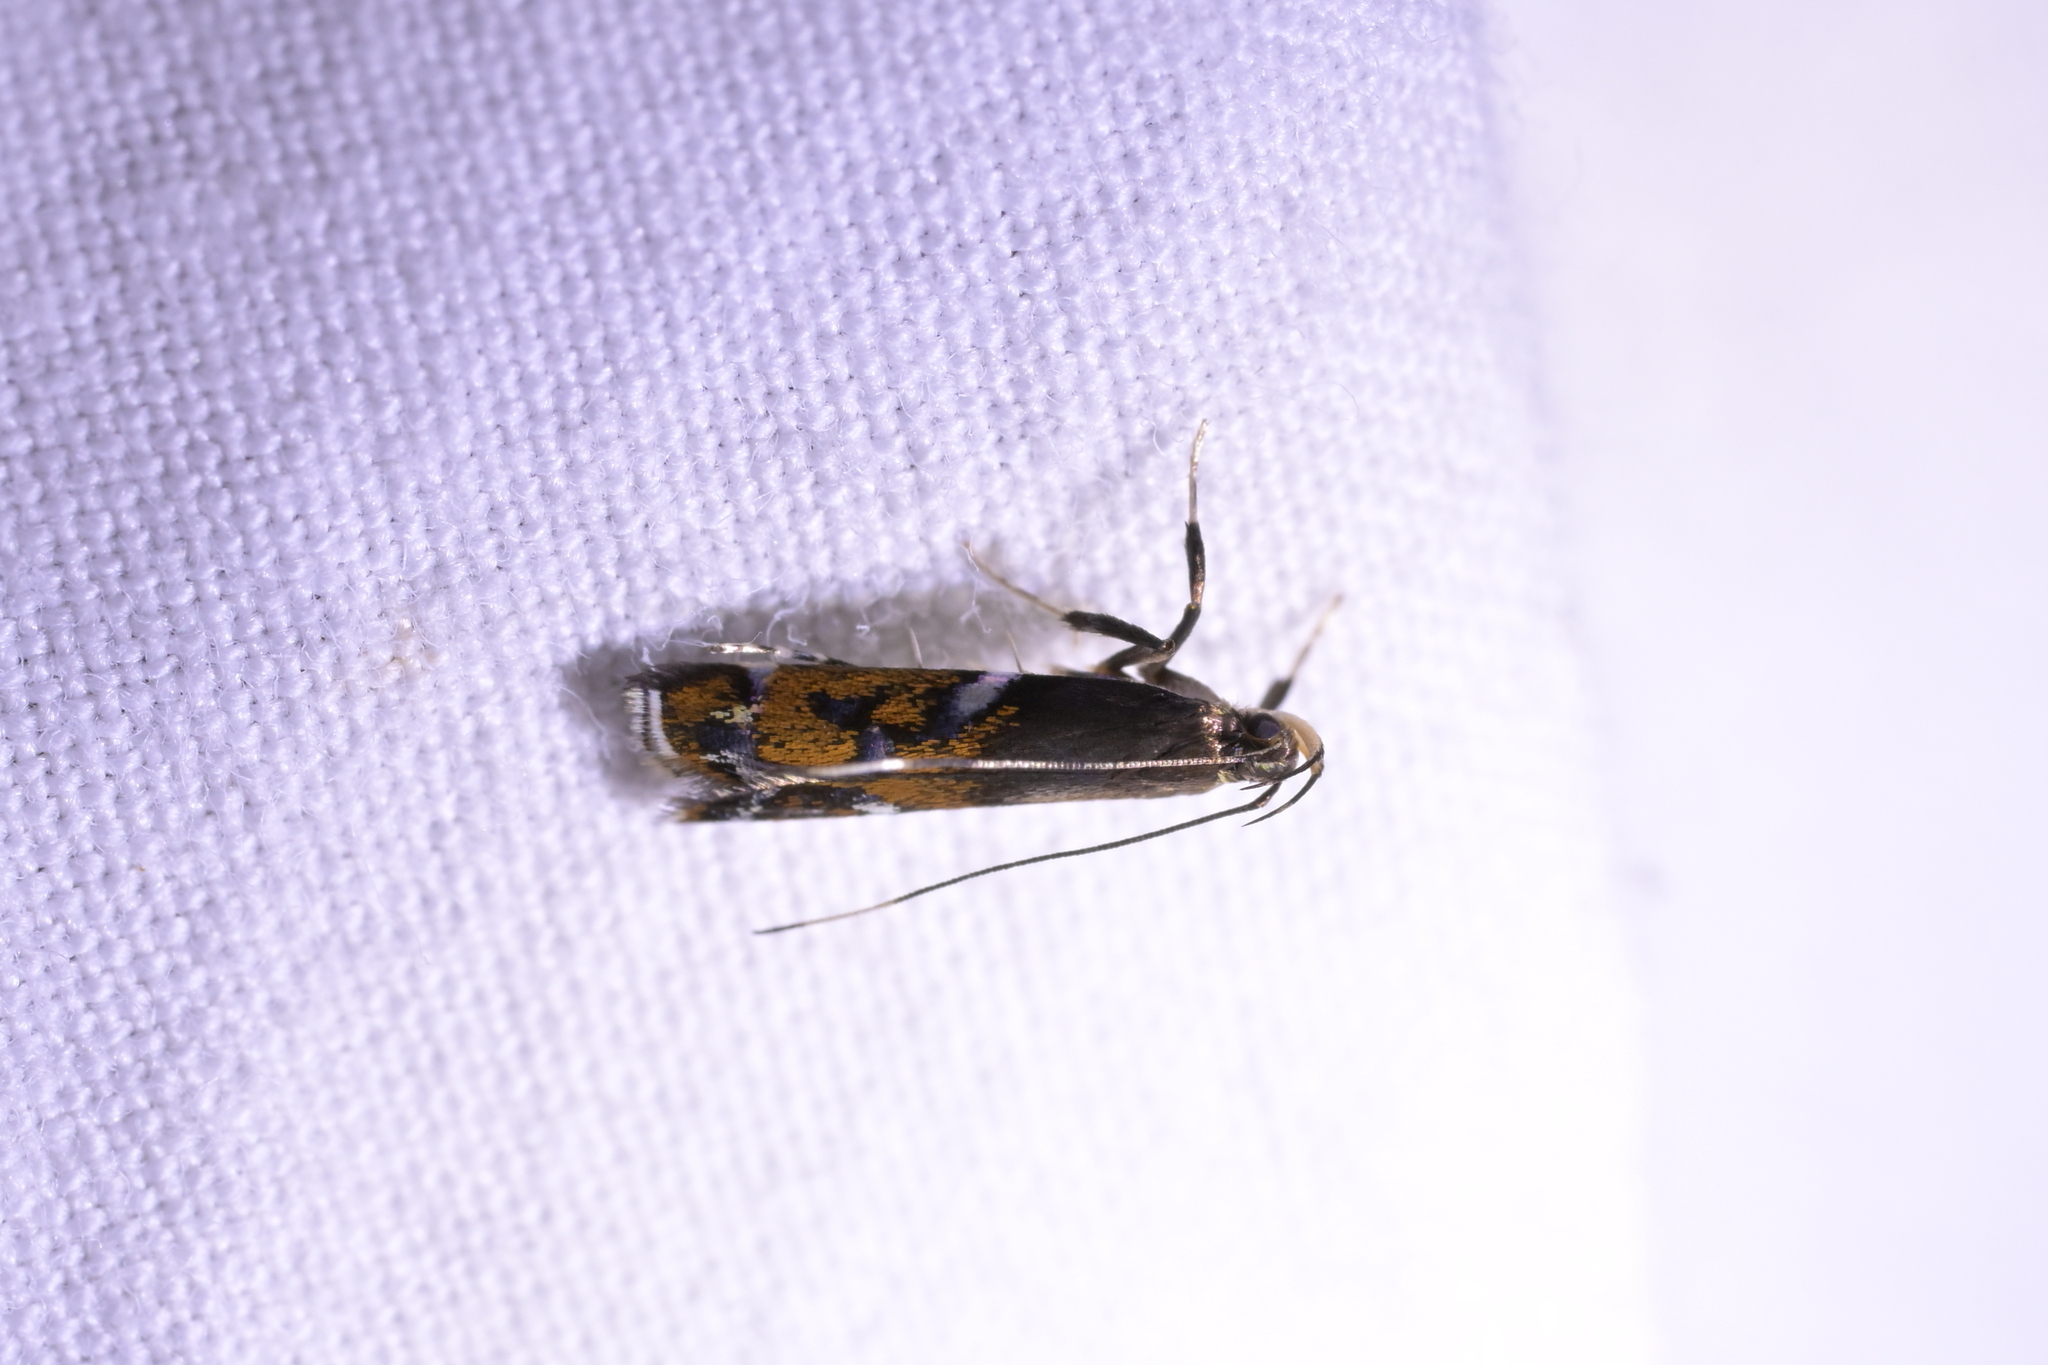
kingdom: Animalia
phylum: Arthropoda
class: Insecta
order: Lepidoptera
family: Depressariidae
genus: Compsistis
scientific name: Compsistis bifaciella
